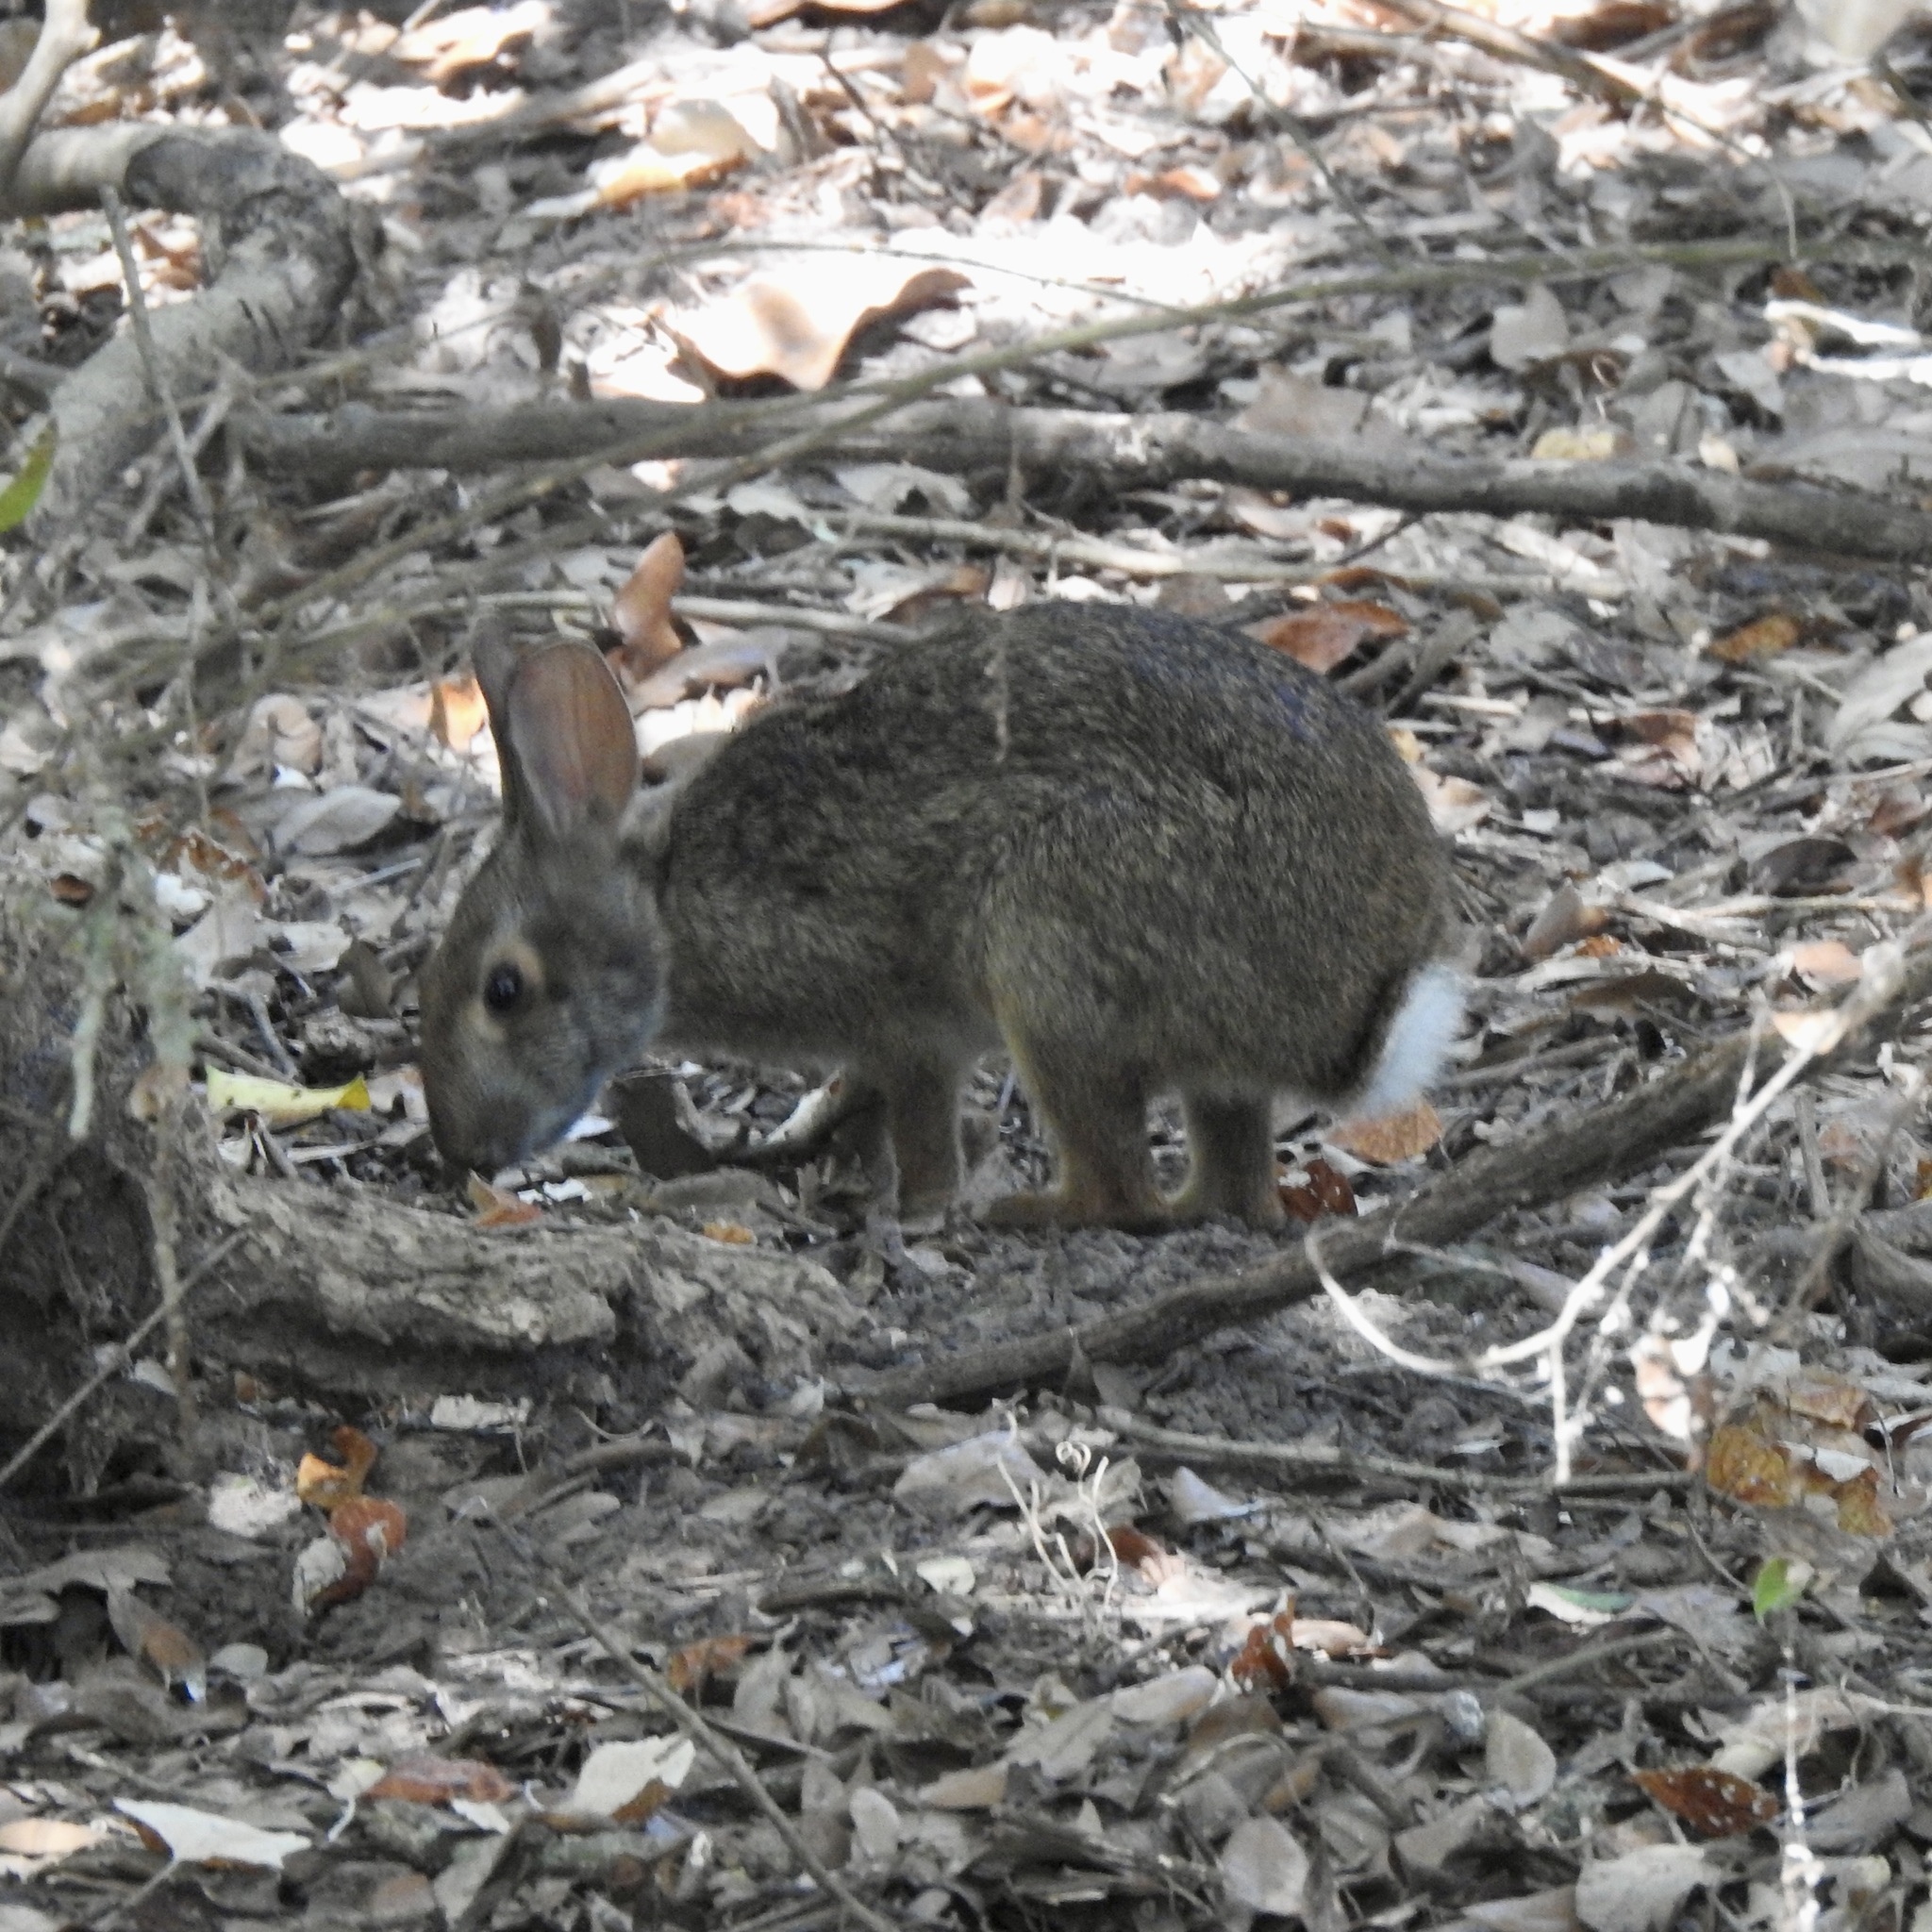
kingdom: Animalia
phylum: Chordata
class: Mammalia
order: Lagomorpha
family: Leporidae
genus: Sylvilagus
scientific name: Sylvilagus aquaticus
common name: Swamp rabbit
